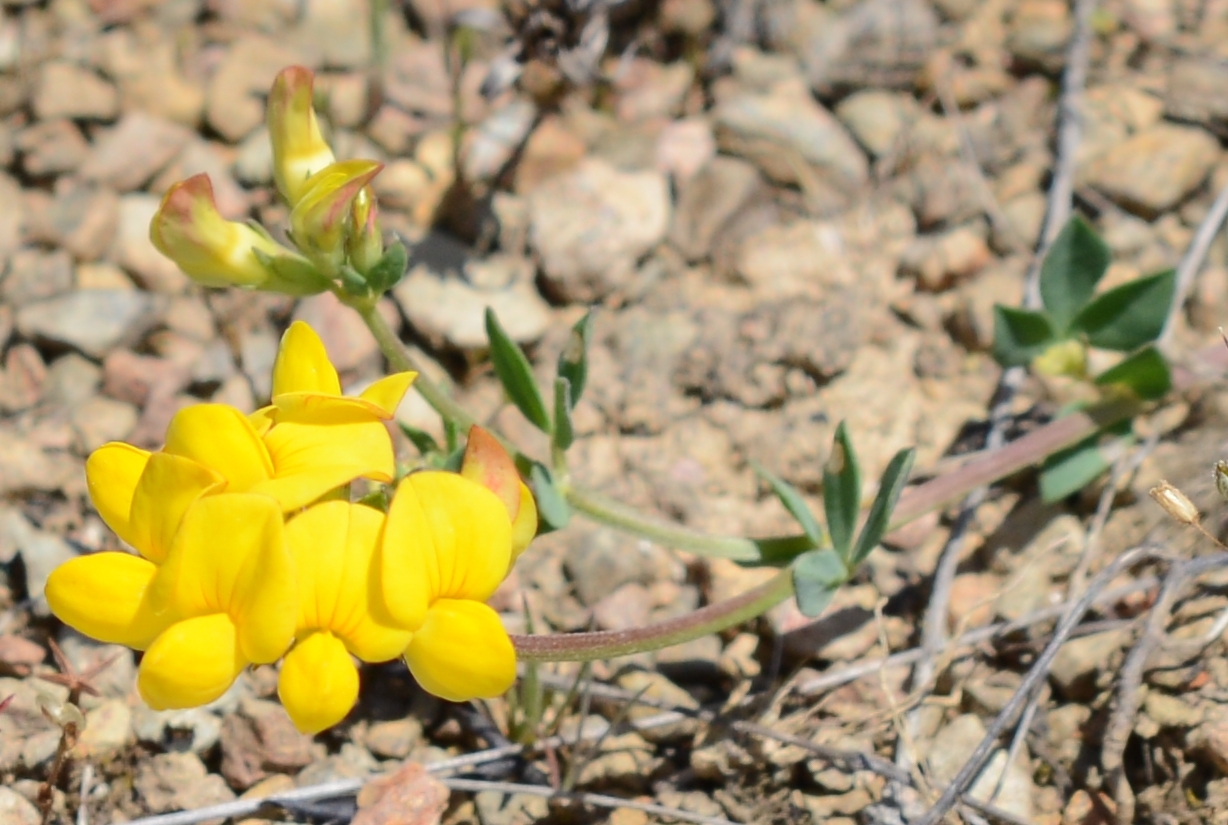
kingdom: Plantae
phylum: Tracheophyta
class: Magnoliopsida
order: Fabales
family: Fabaceae
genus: Lotus
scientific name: Lotus corniculatus
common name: Common bird's-foot-trefoil
